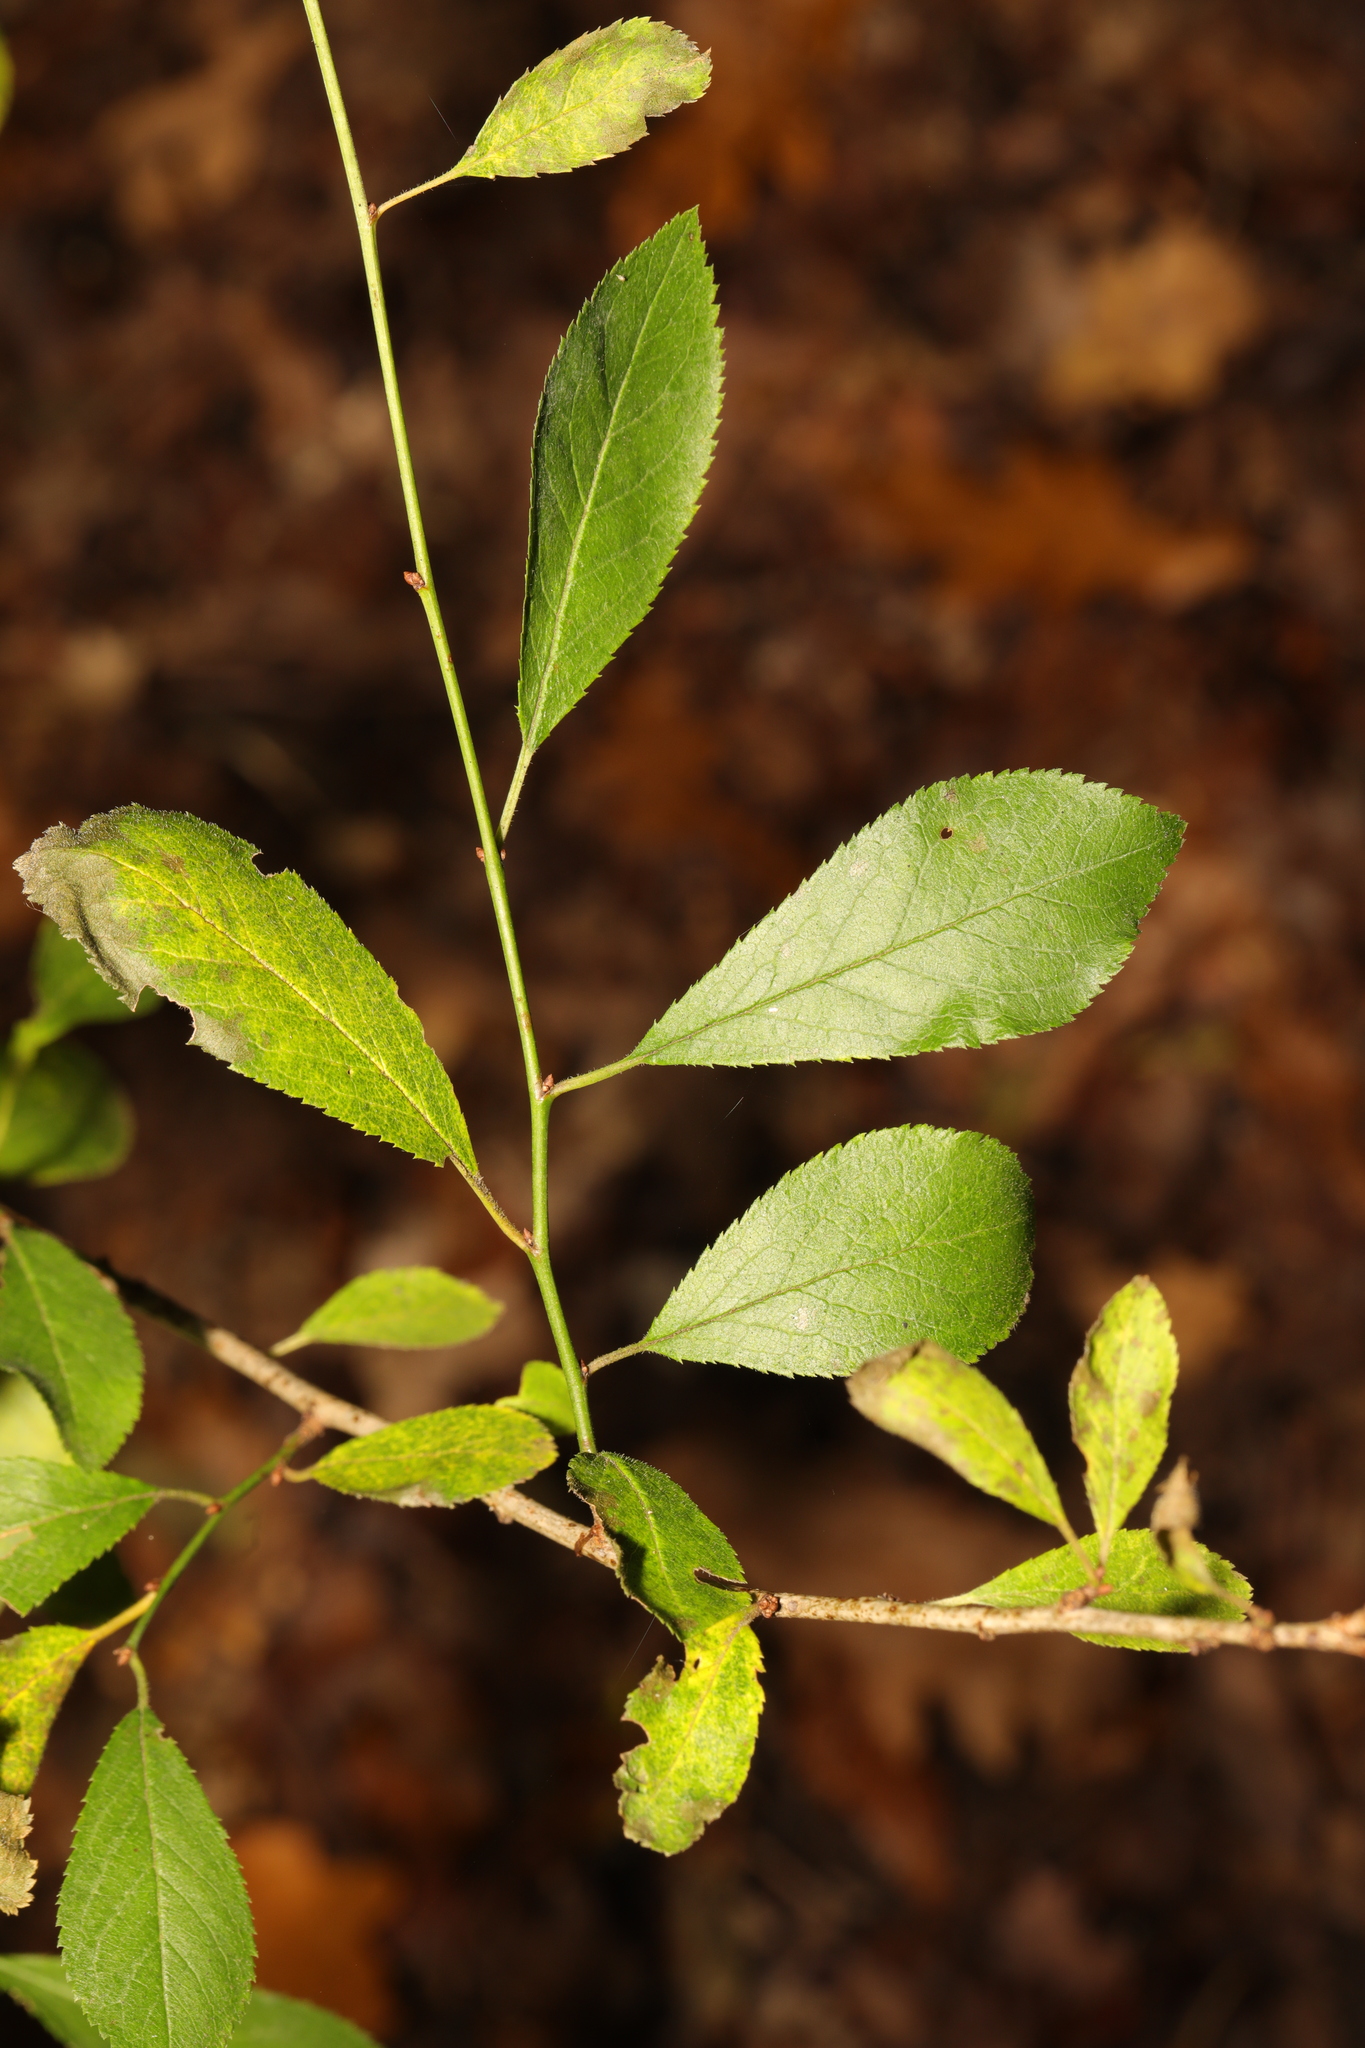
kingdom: Plantae
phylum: Tracheophyta
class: Magnoliopsida
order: Rosales
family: Rosaceae
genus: Prunus
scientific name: Prunus spinosa
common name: Blackthorn
